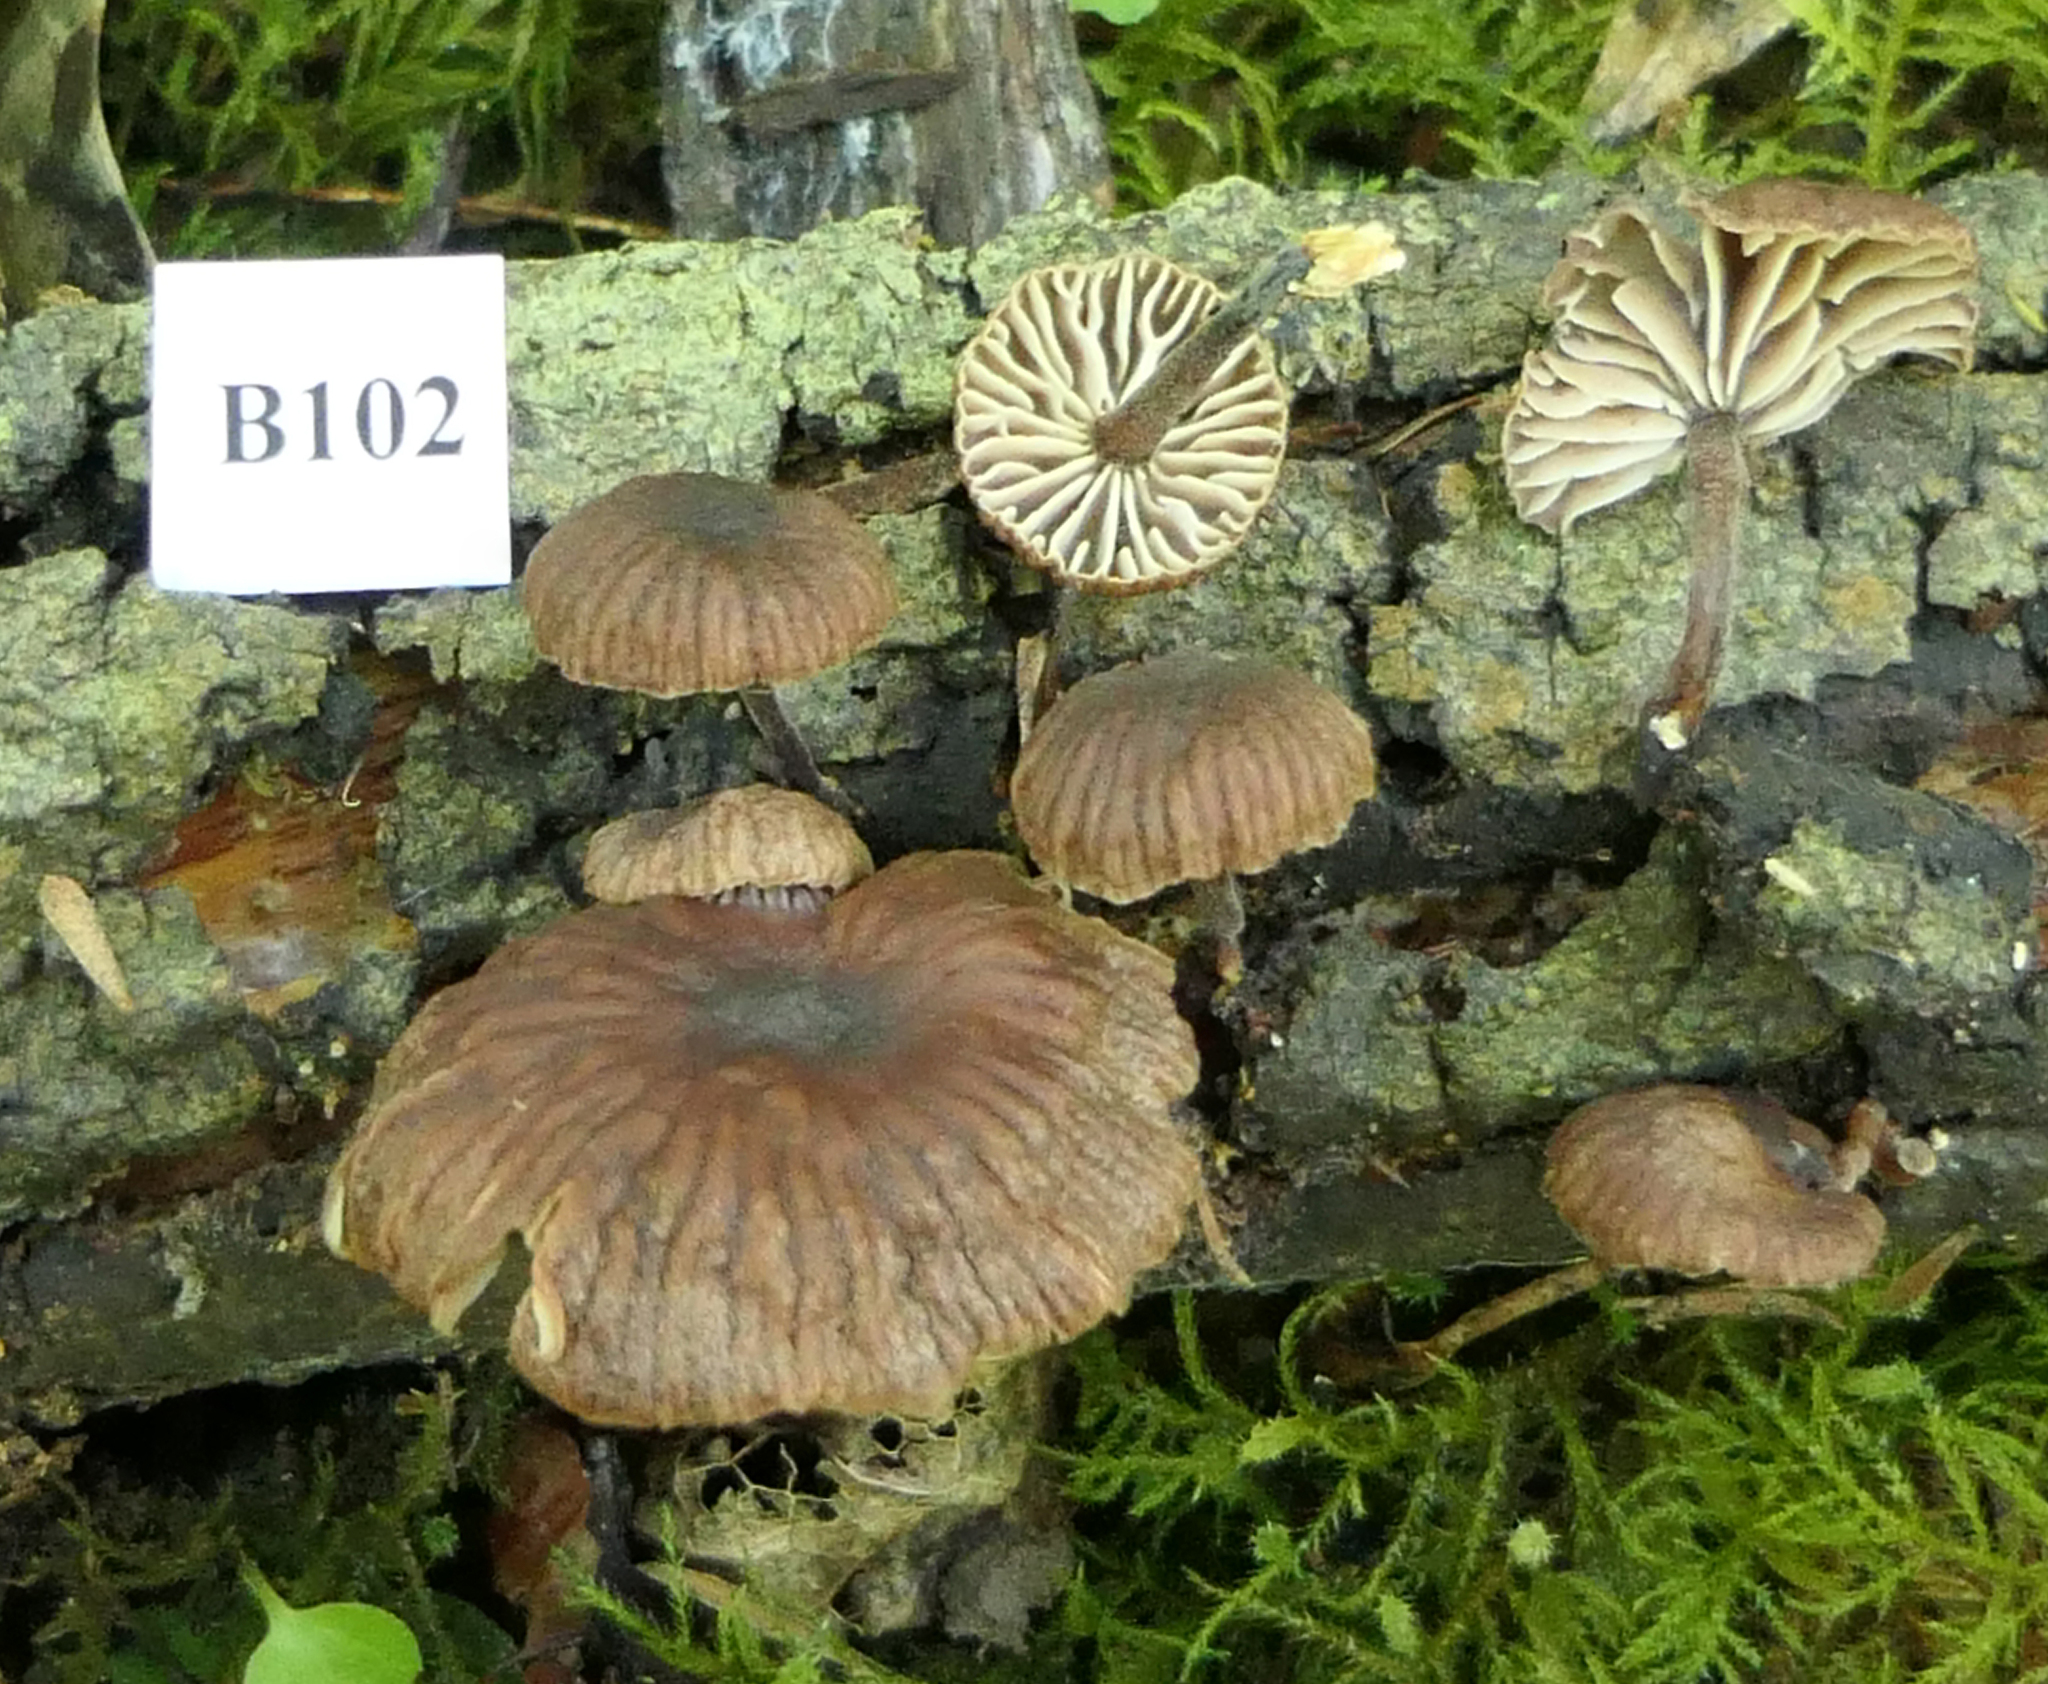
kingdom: Fungi
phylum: Basidiomycota
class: Agaricomycetes
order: Agaricales
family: Omphalotaceae
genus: Gymnopus
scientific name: Gymnopus ceraceicola
